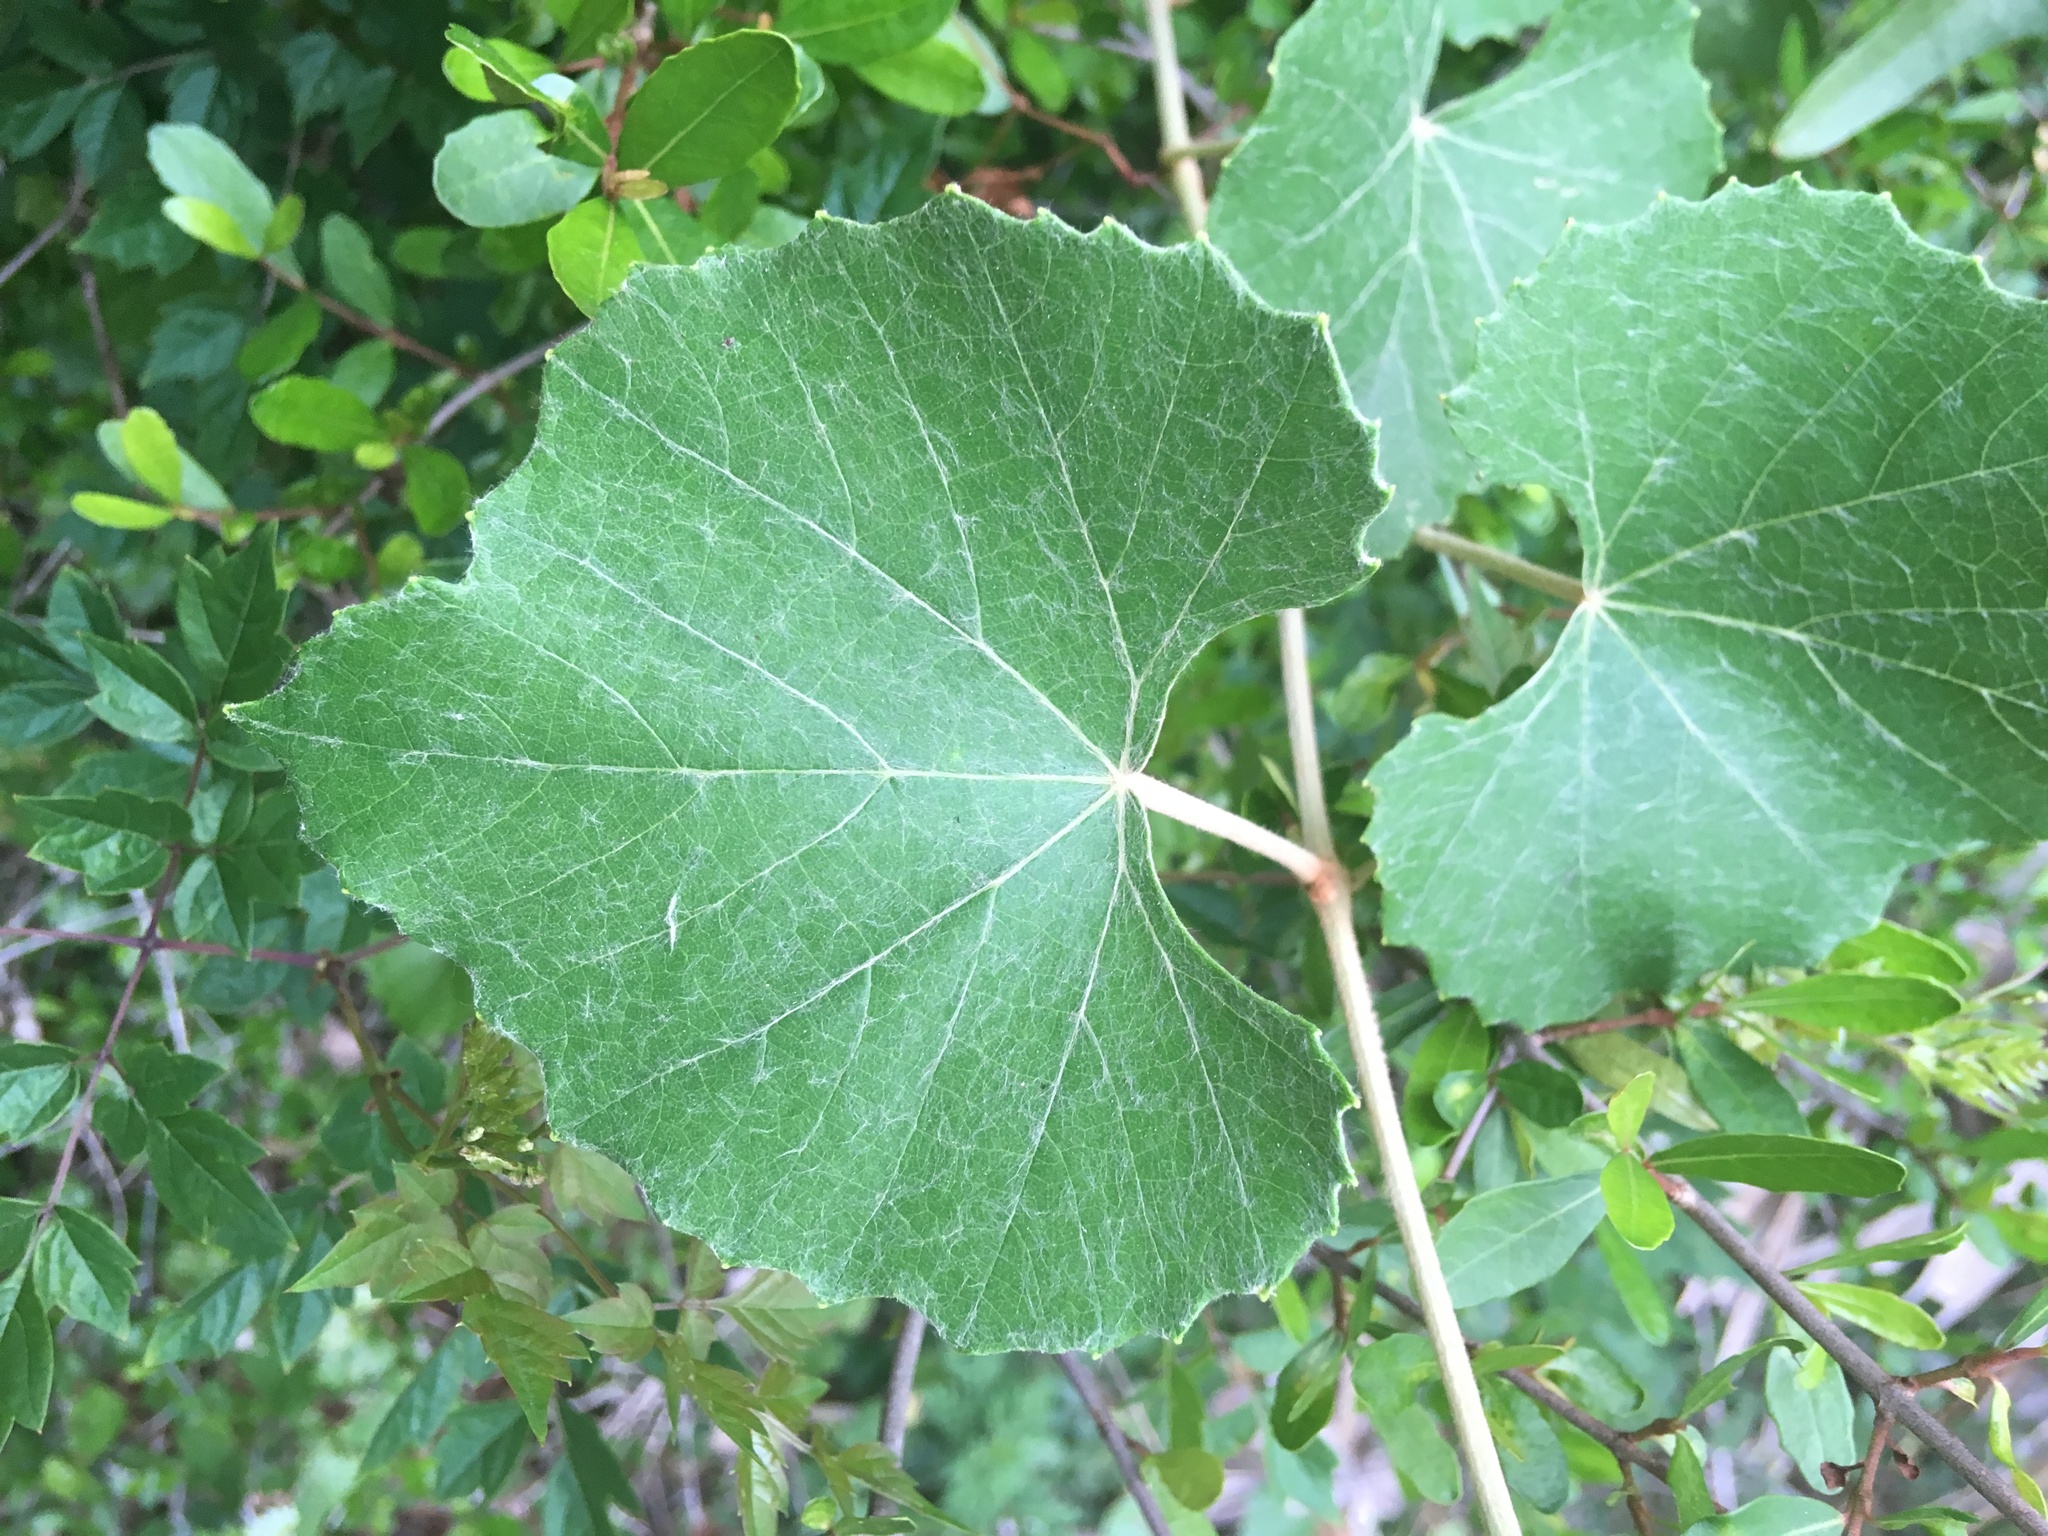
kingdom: Plantae
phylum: Tracheophyta
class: Magnoliopsida
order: Vitales
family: Vitaceae
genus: Vitis
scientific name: Vitis shuttleworthii
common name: Caloosa grape
